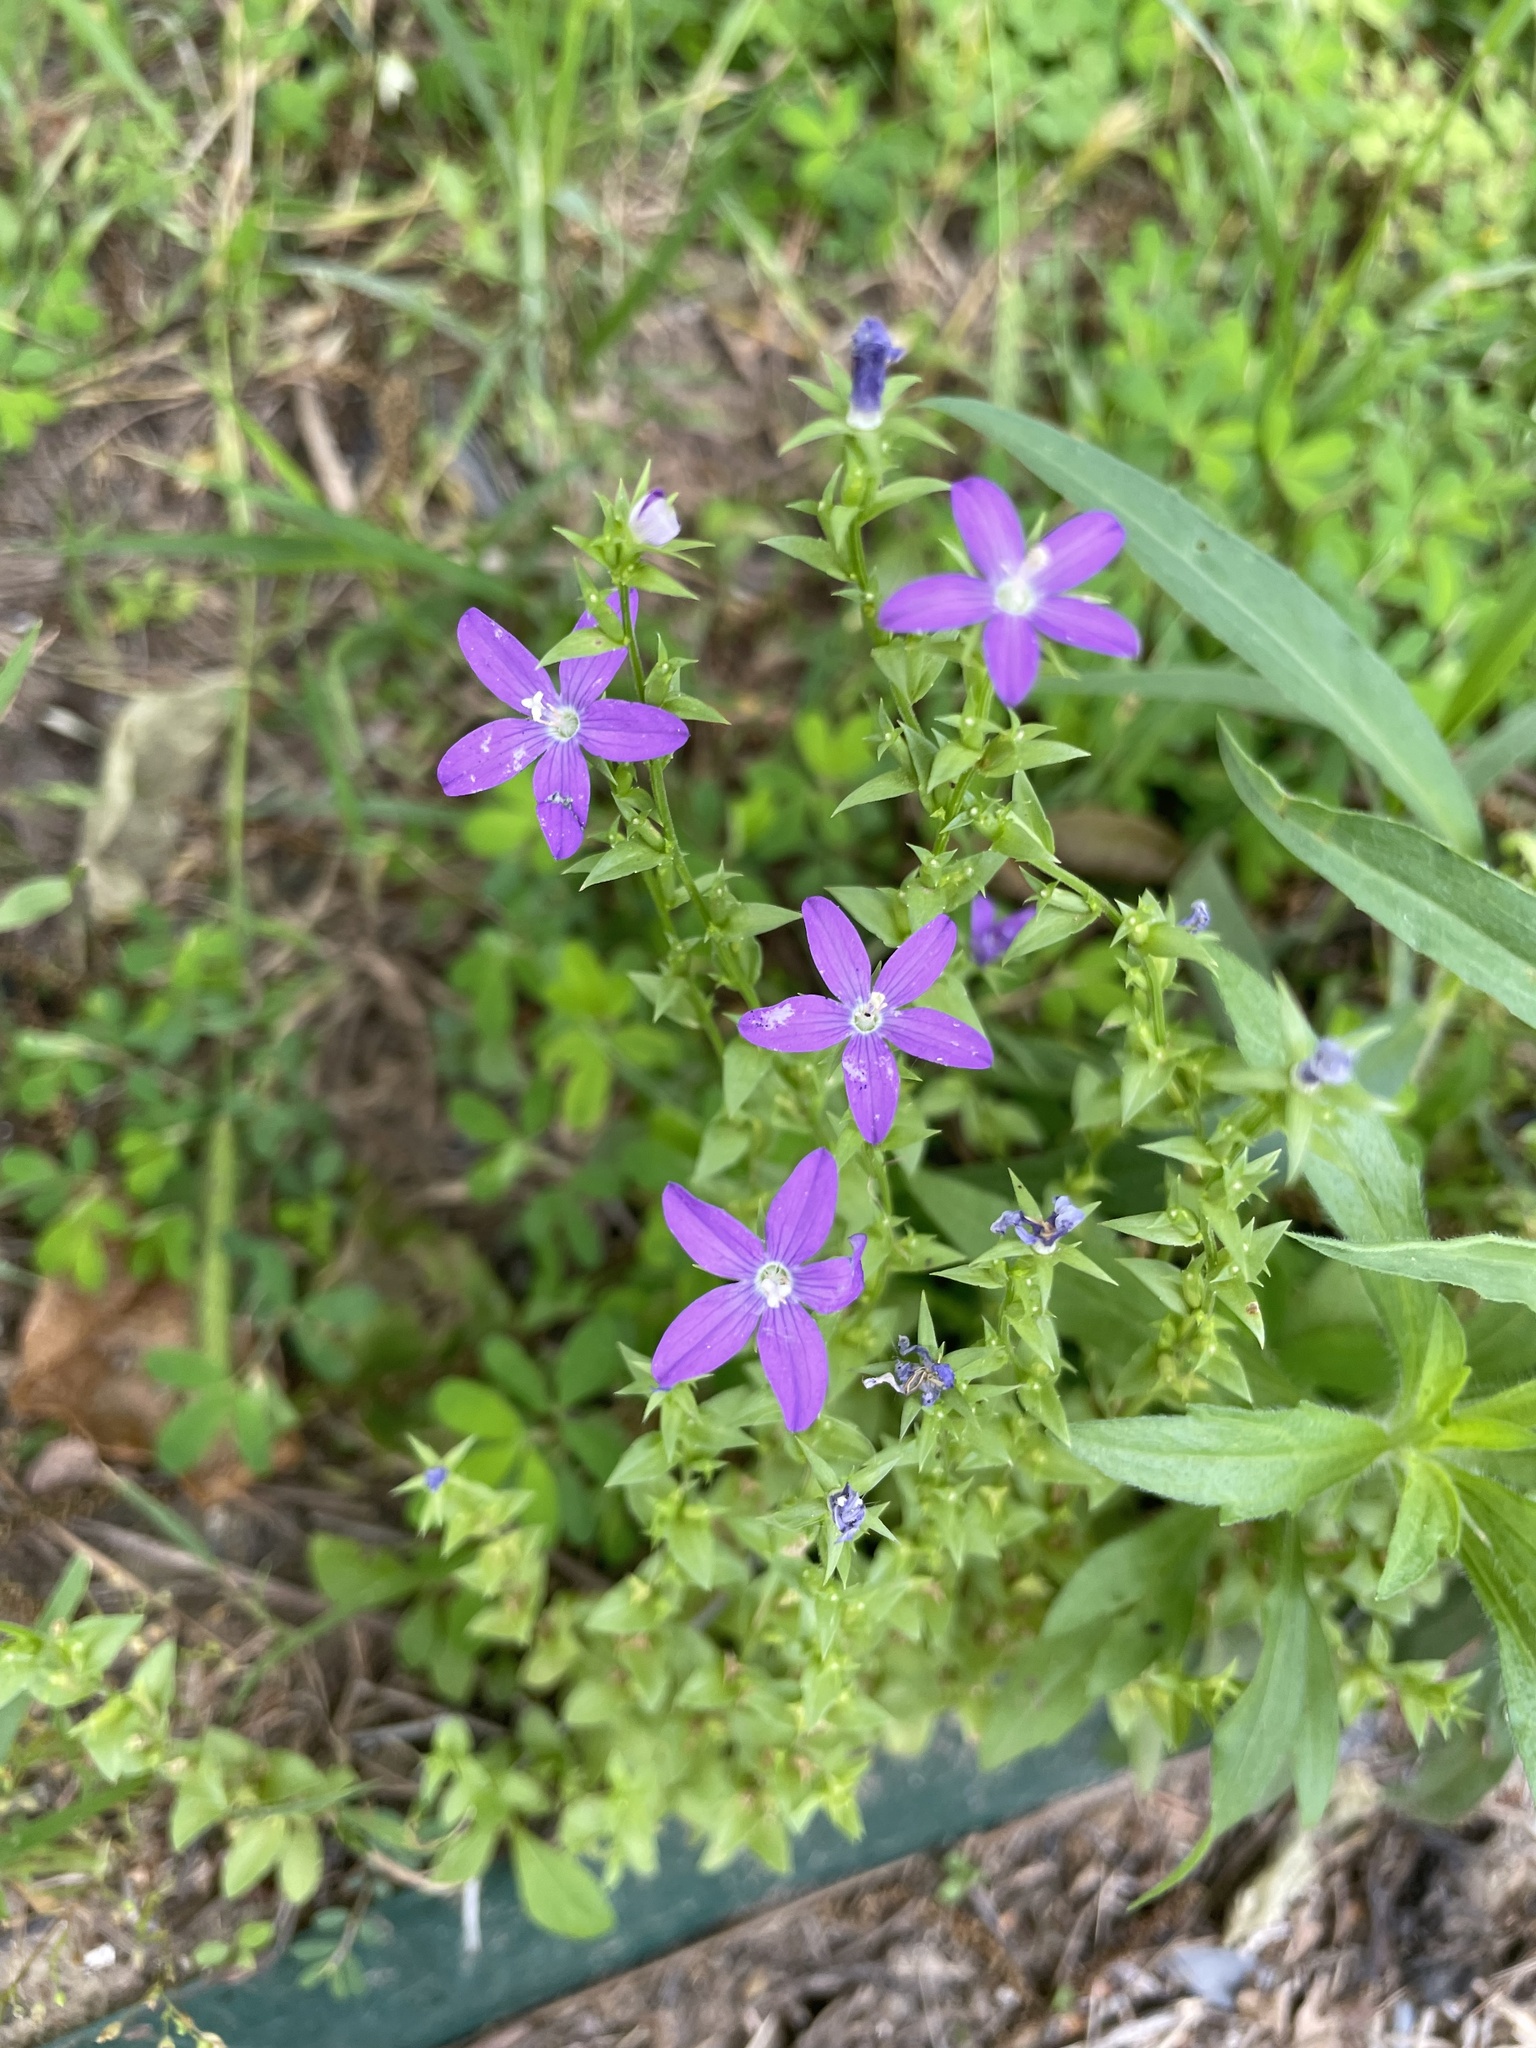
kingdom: Plantae
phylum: Tracheophyta
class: Magnoliopsida
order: Asterales
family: Campanulaceae
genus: Triodanis
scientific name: Triodanis biflora
